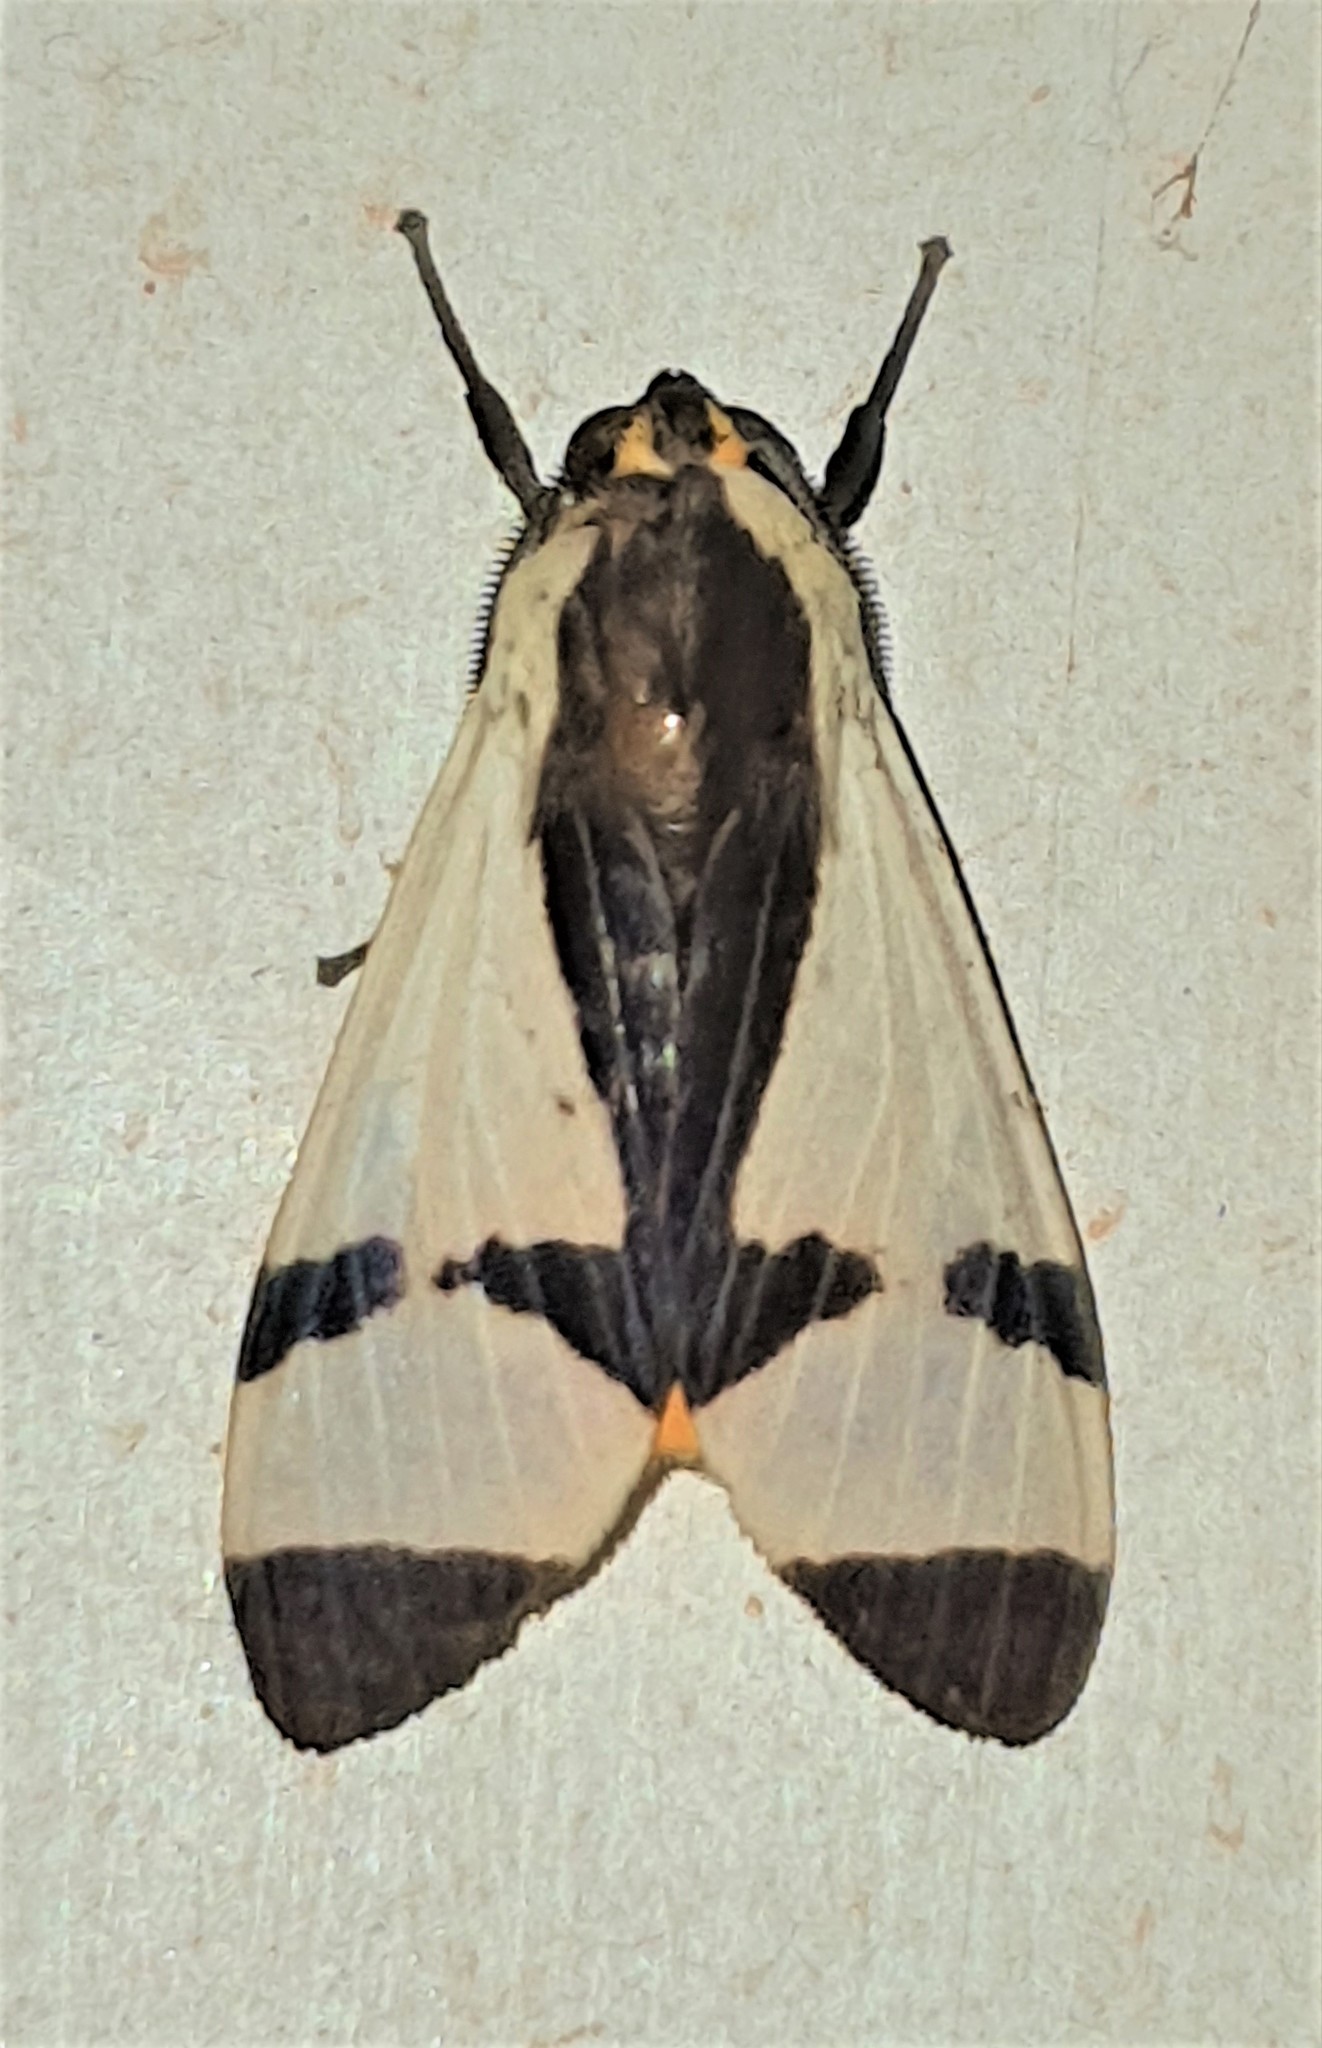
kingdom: Animalia
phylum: Arthropoda
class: Insecta
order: Lepidoptera
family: Erebidae
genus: Pryteria
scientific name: Pryteria alboatra
